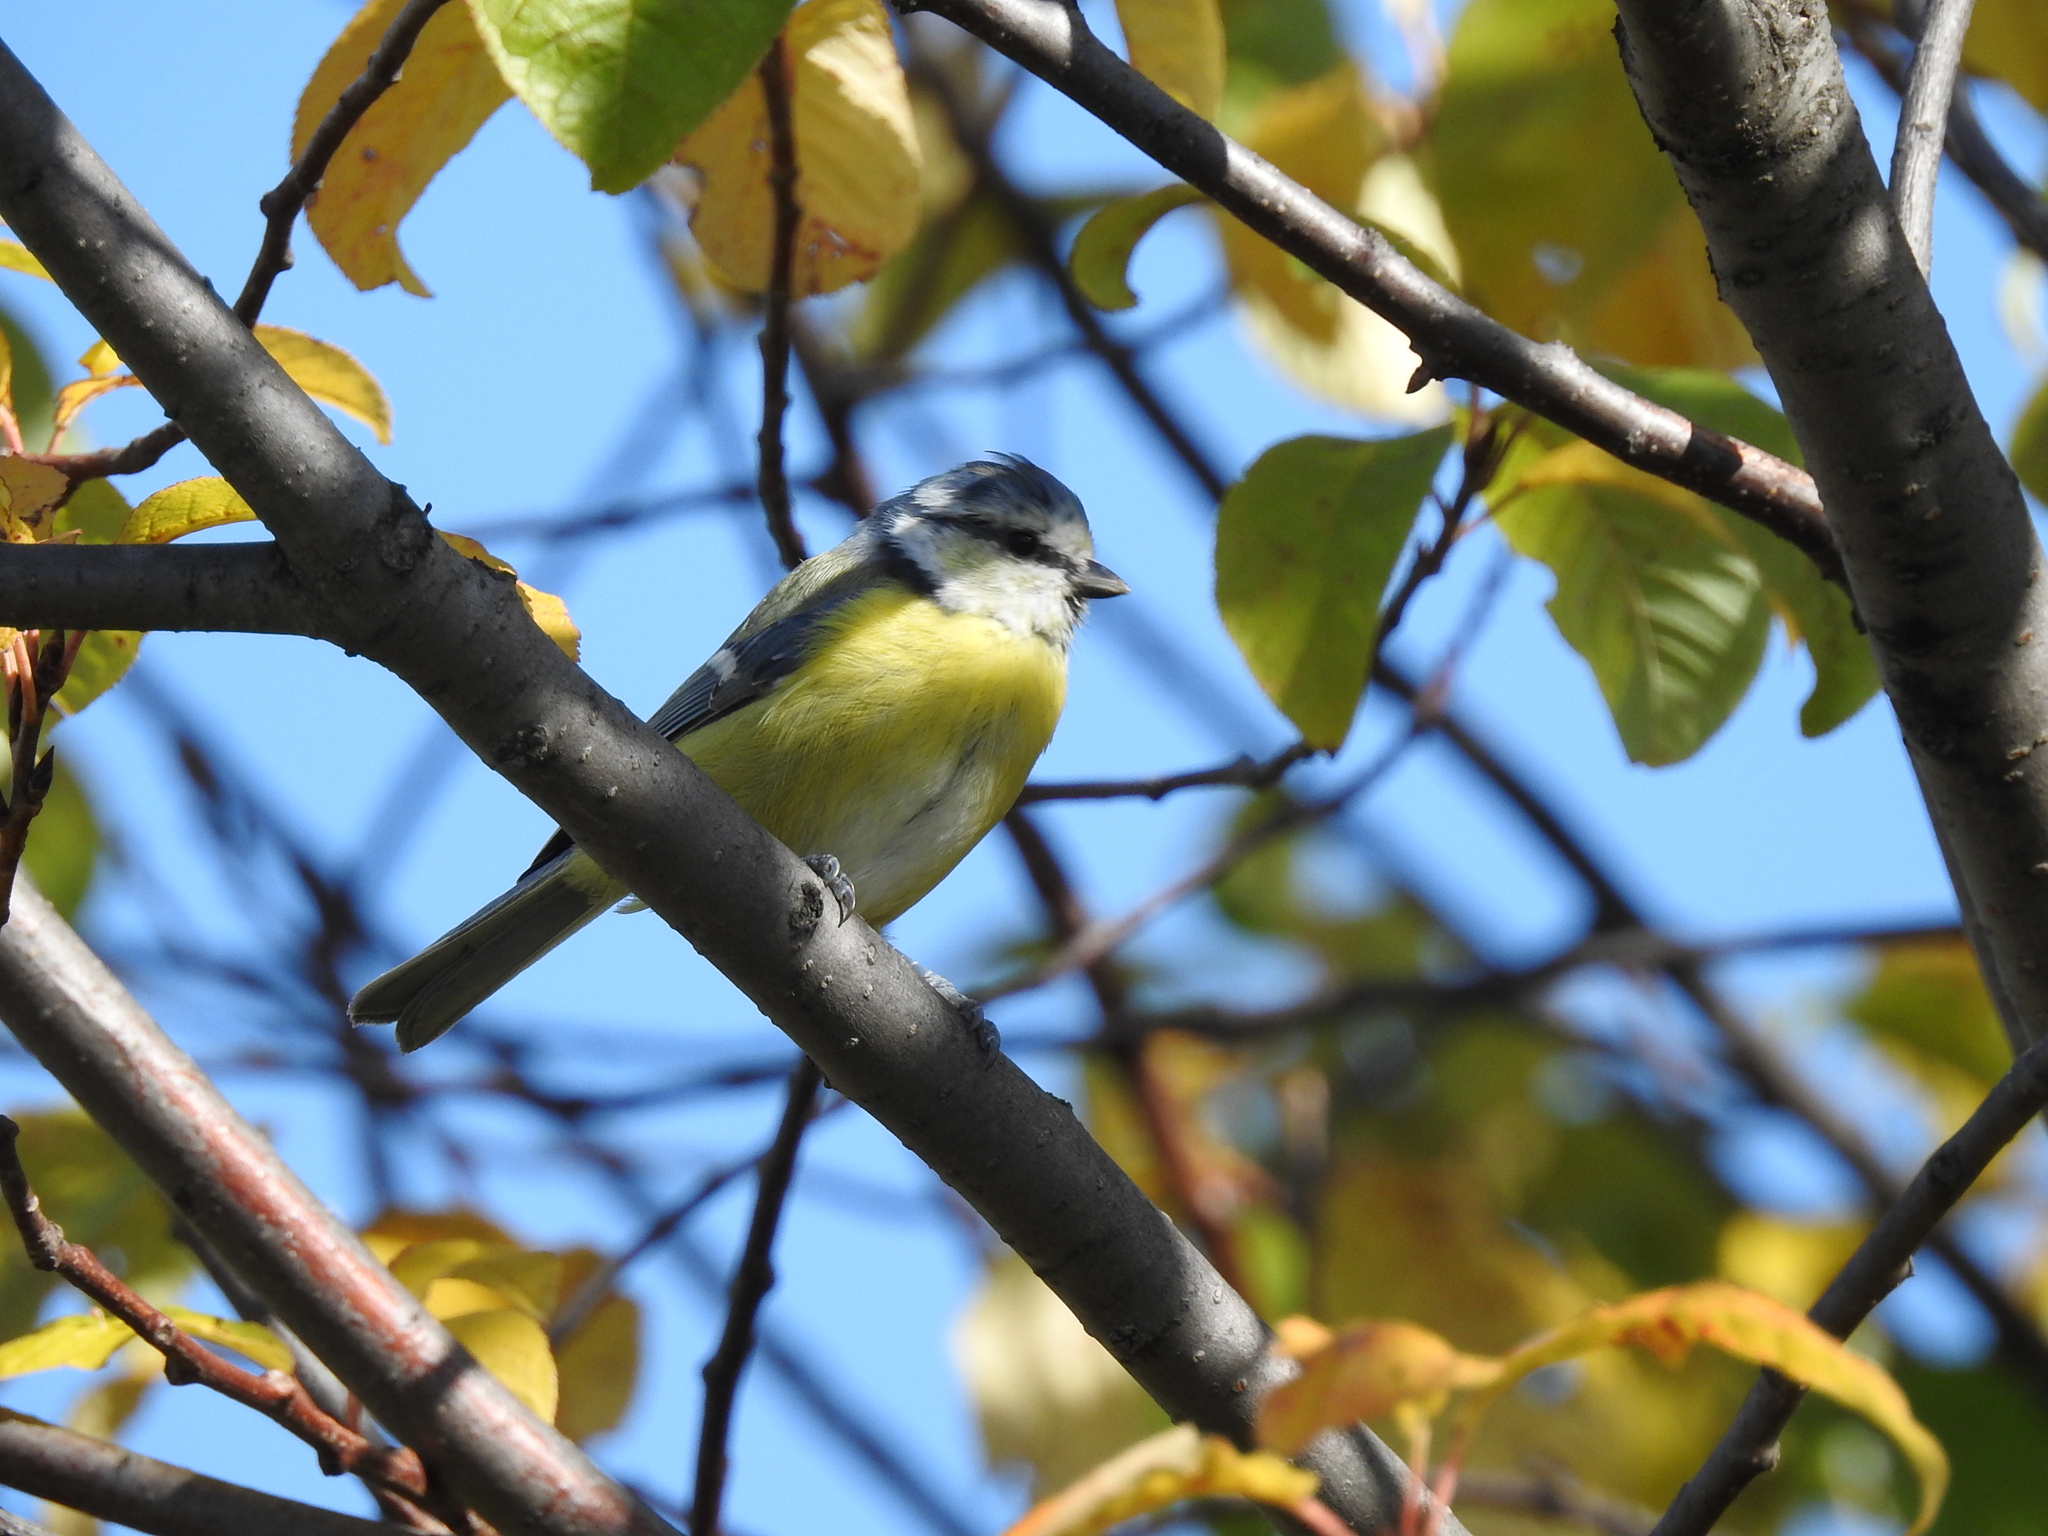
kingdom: Animalia
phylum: Chordata
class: Aves
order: Passeriformes
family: Paridae
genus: Cyanistes
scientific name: Cyanistes caeruleus
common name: Eurasian blue tit
